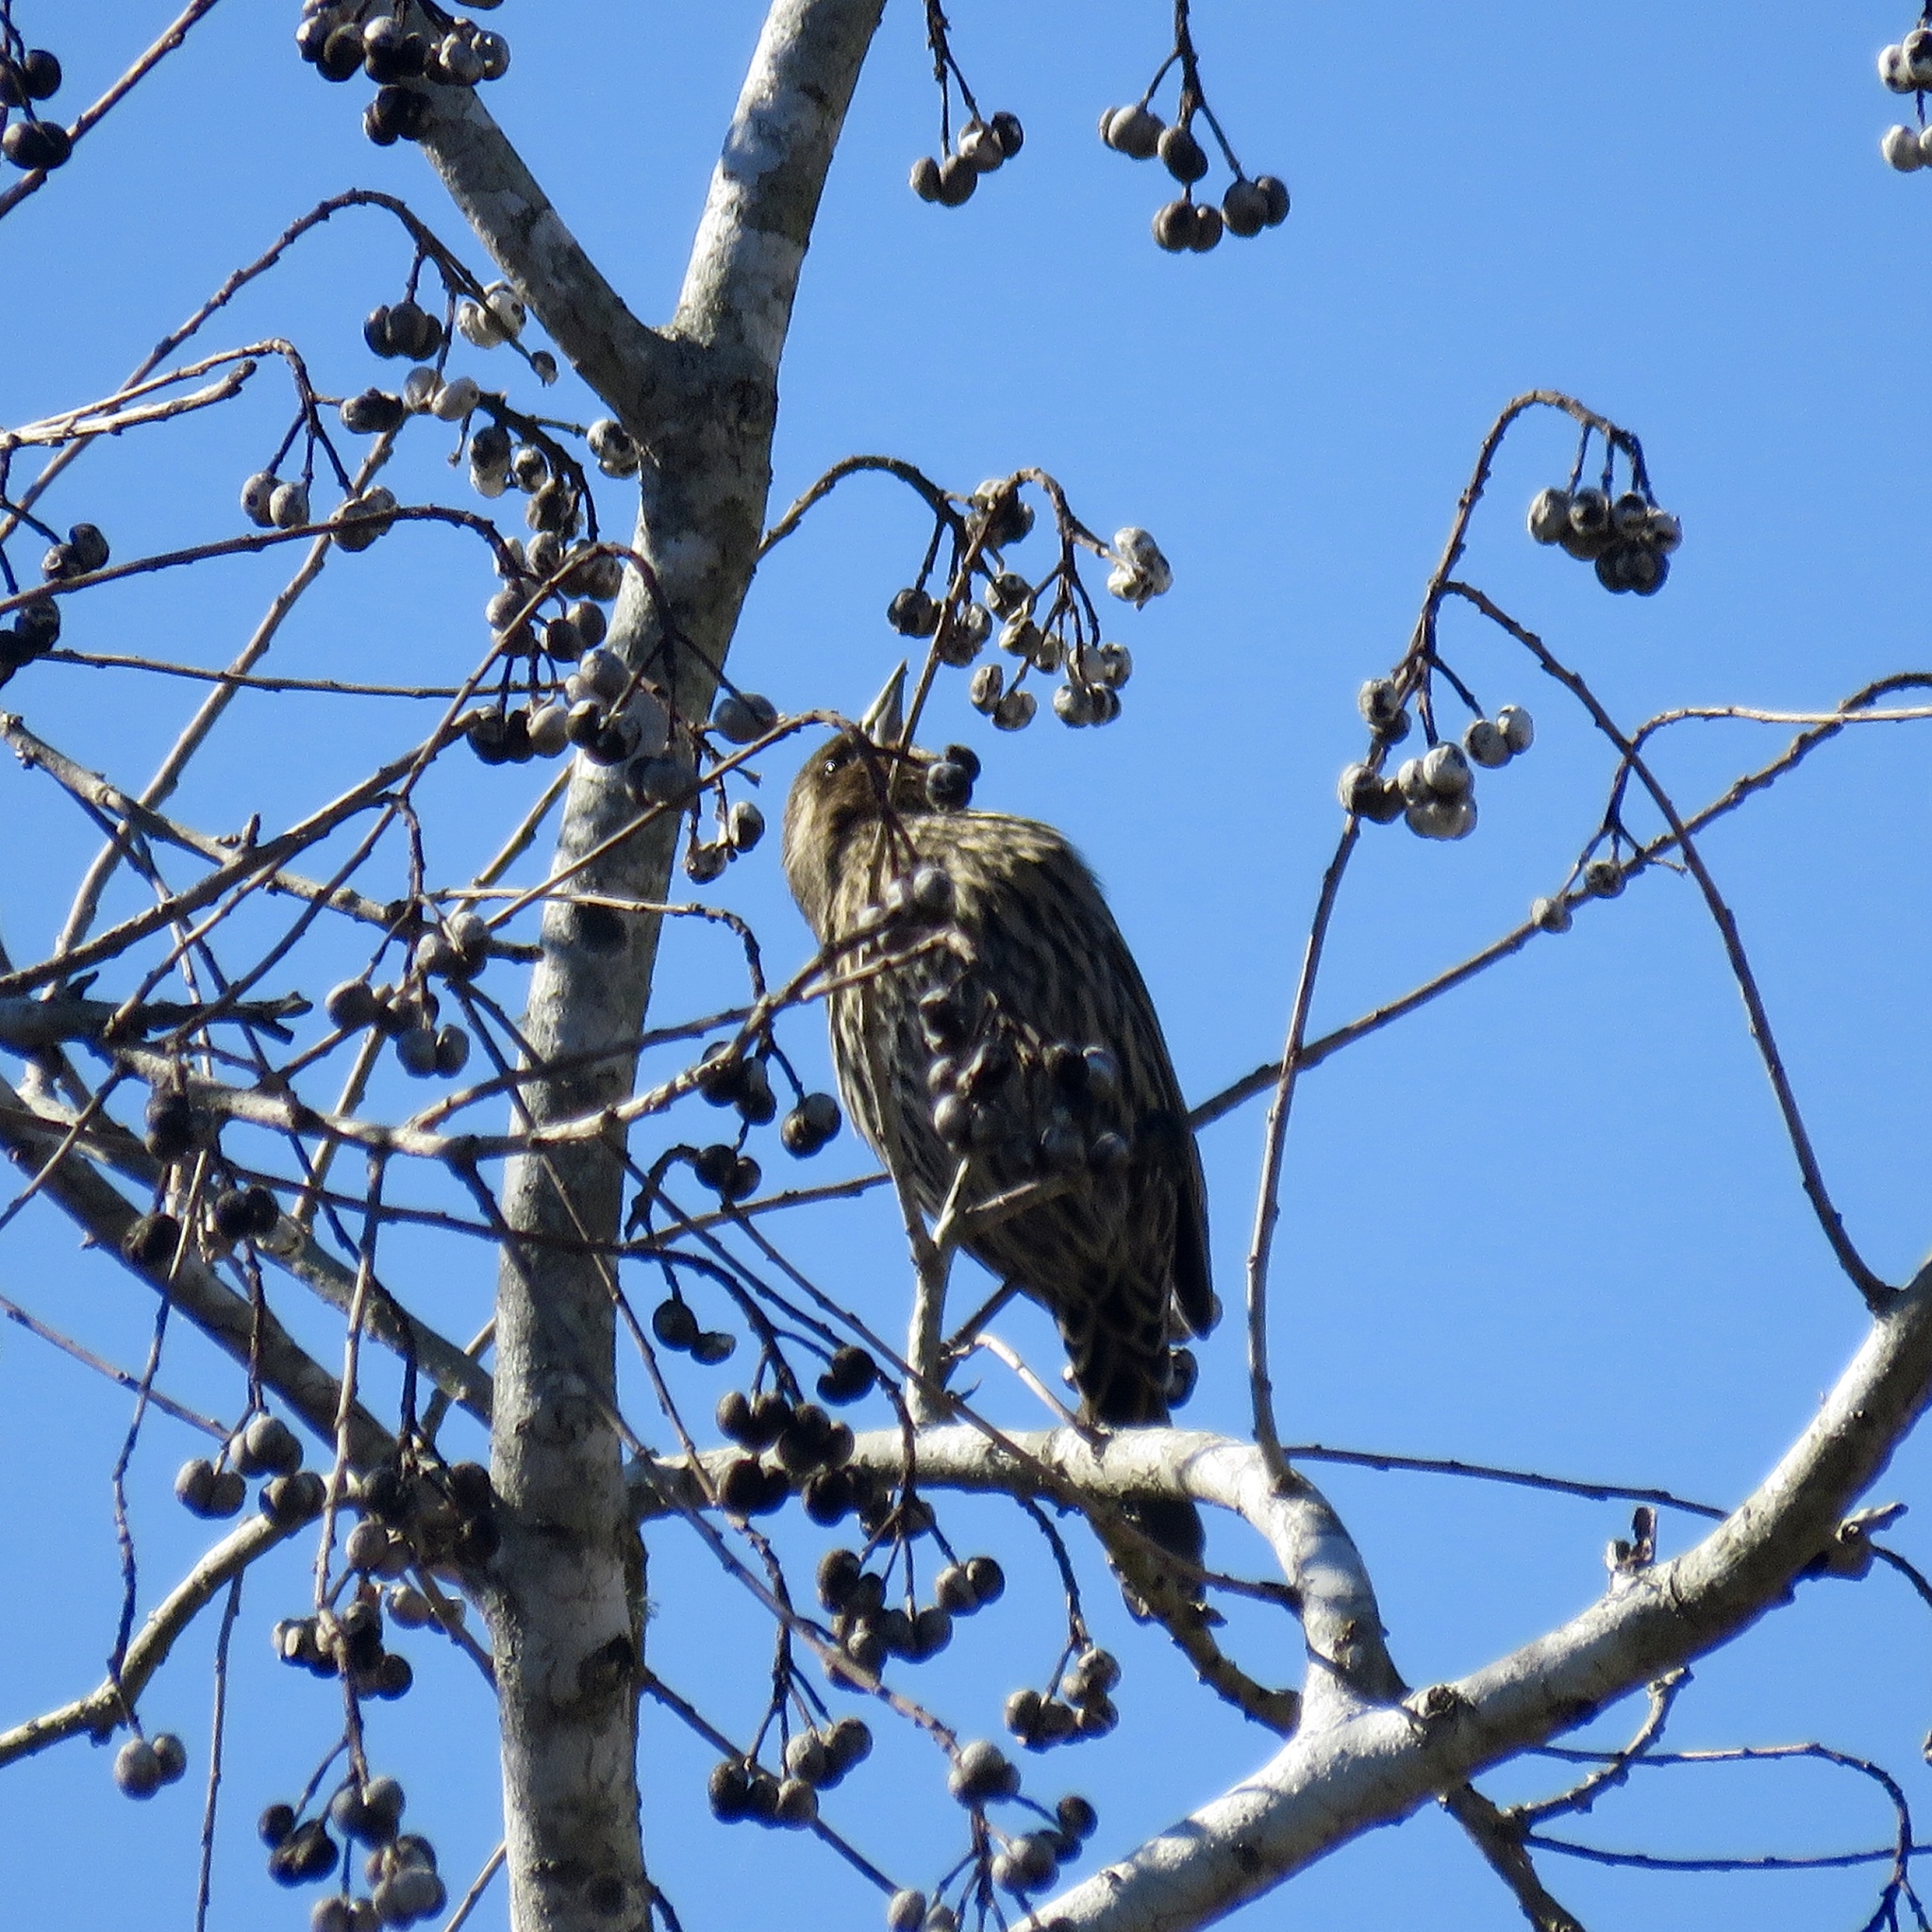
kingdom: Animalia
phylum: Chordata
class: Aves
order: Passeriformes
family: Icteridae
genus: Agelaius
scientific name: Agelaius phoeniceus
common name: Red-winged blackbird
